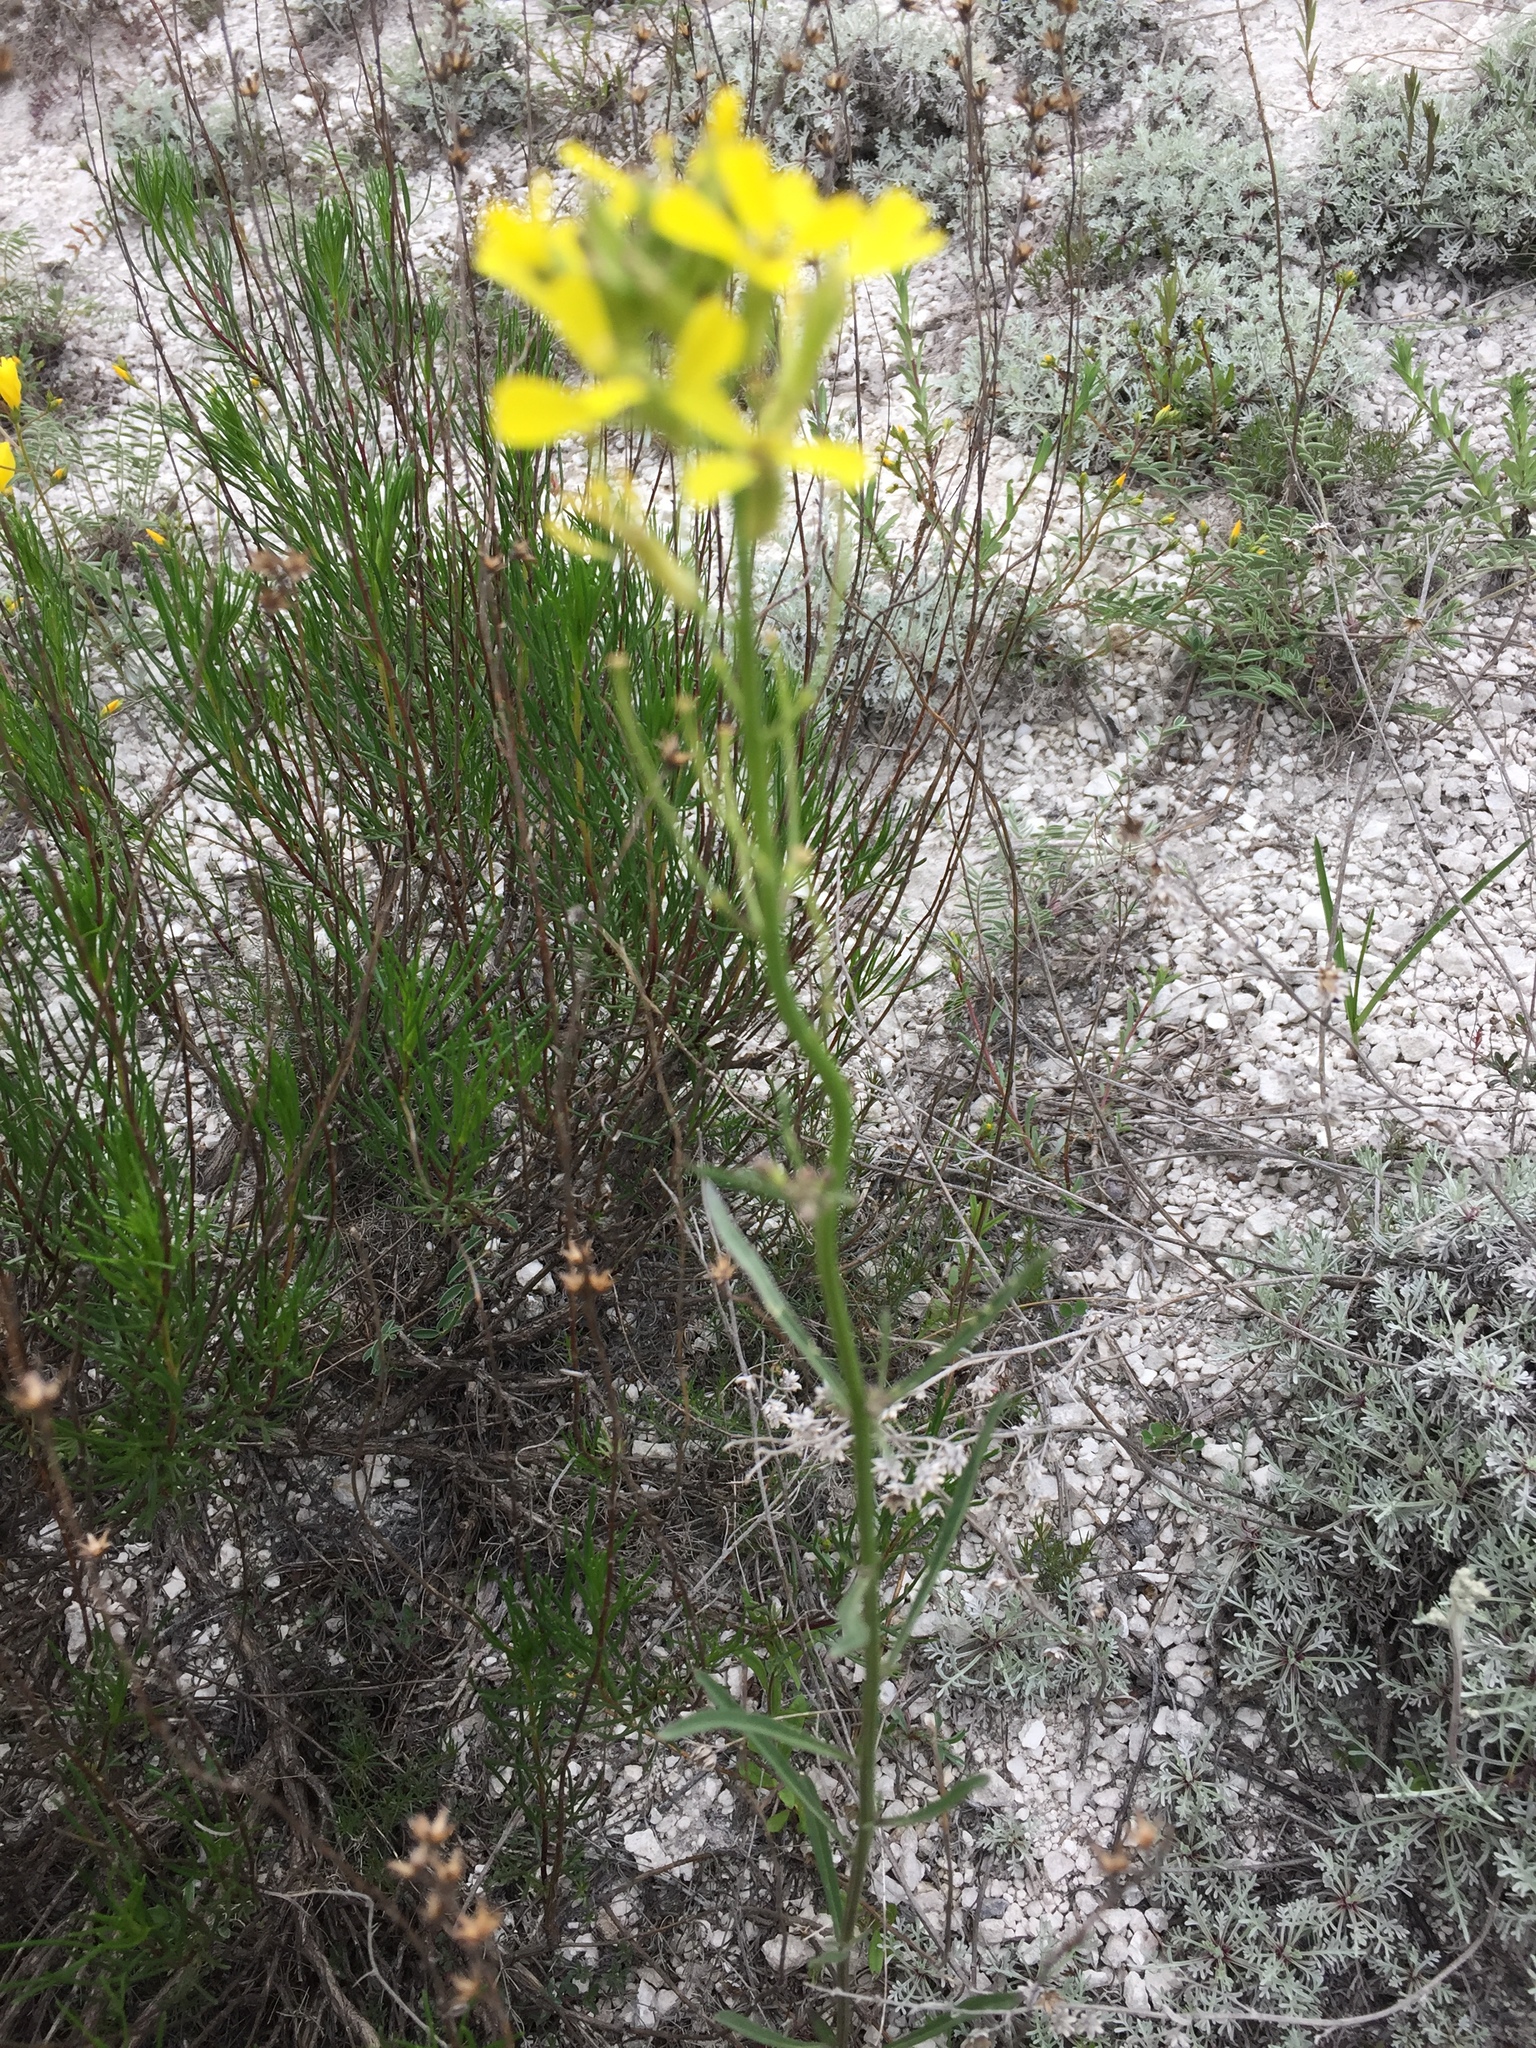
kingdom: Plantae
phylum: Tracheophyta
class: Magnoliopsida
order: Brassicales
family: Brassicaceae
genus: Erysimum
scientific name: Erysimum diffusum
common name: Diffuse wallflower
